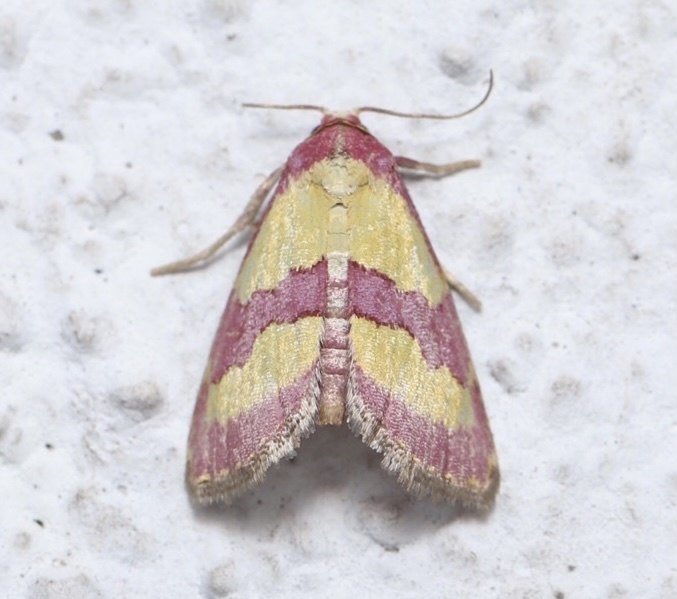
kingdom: Animalia
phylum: Arthropoda
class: Insecta
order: Lepidoptera
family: Noctuidae
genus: Phoenicophanta
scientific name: Phoenicophanta bicolor
